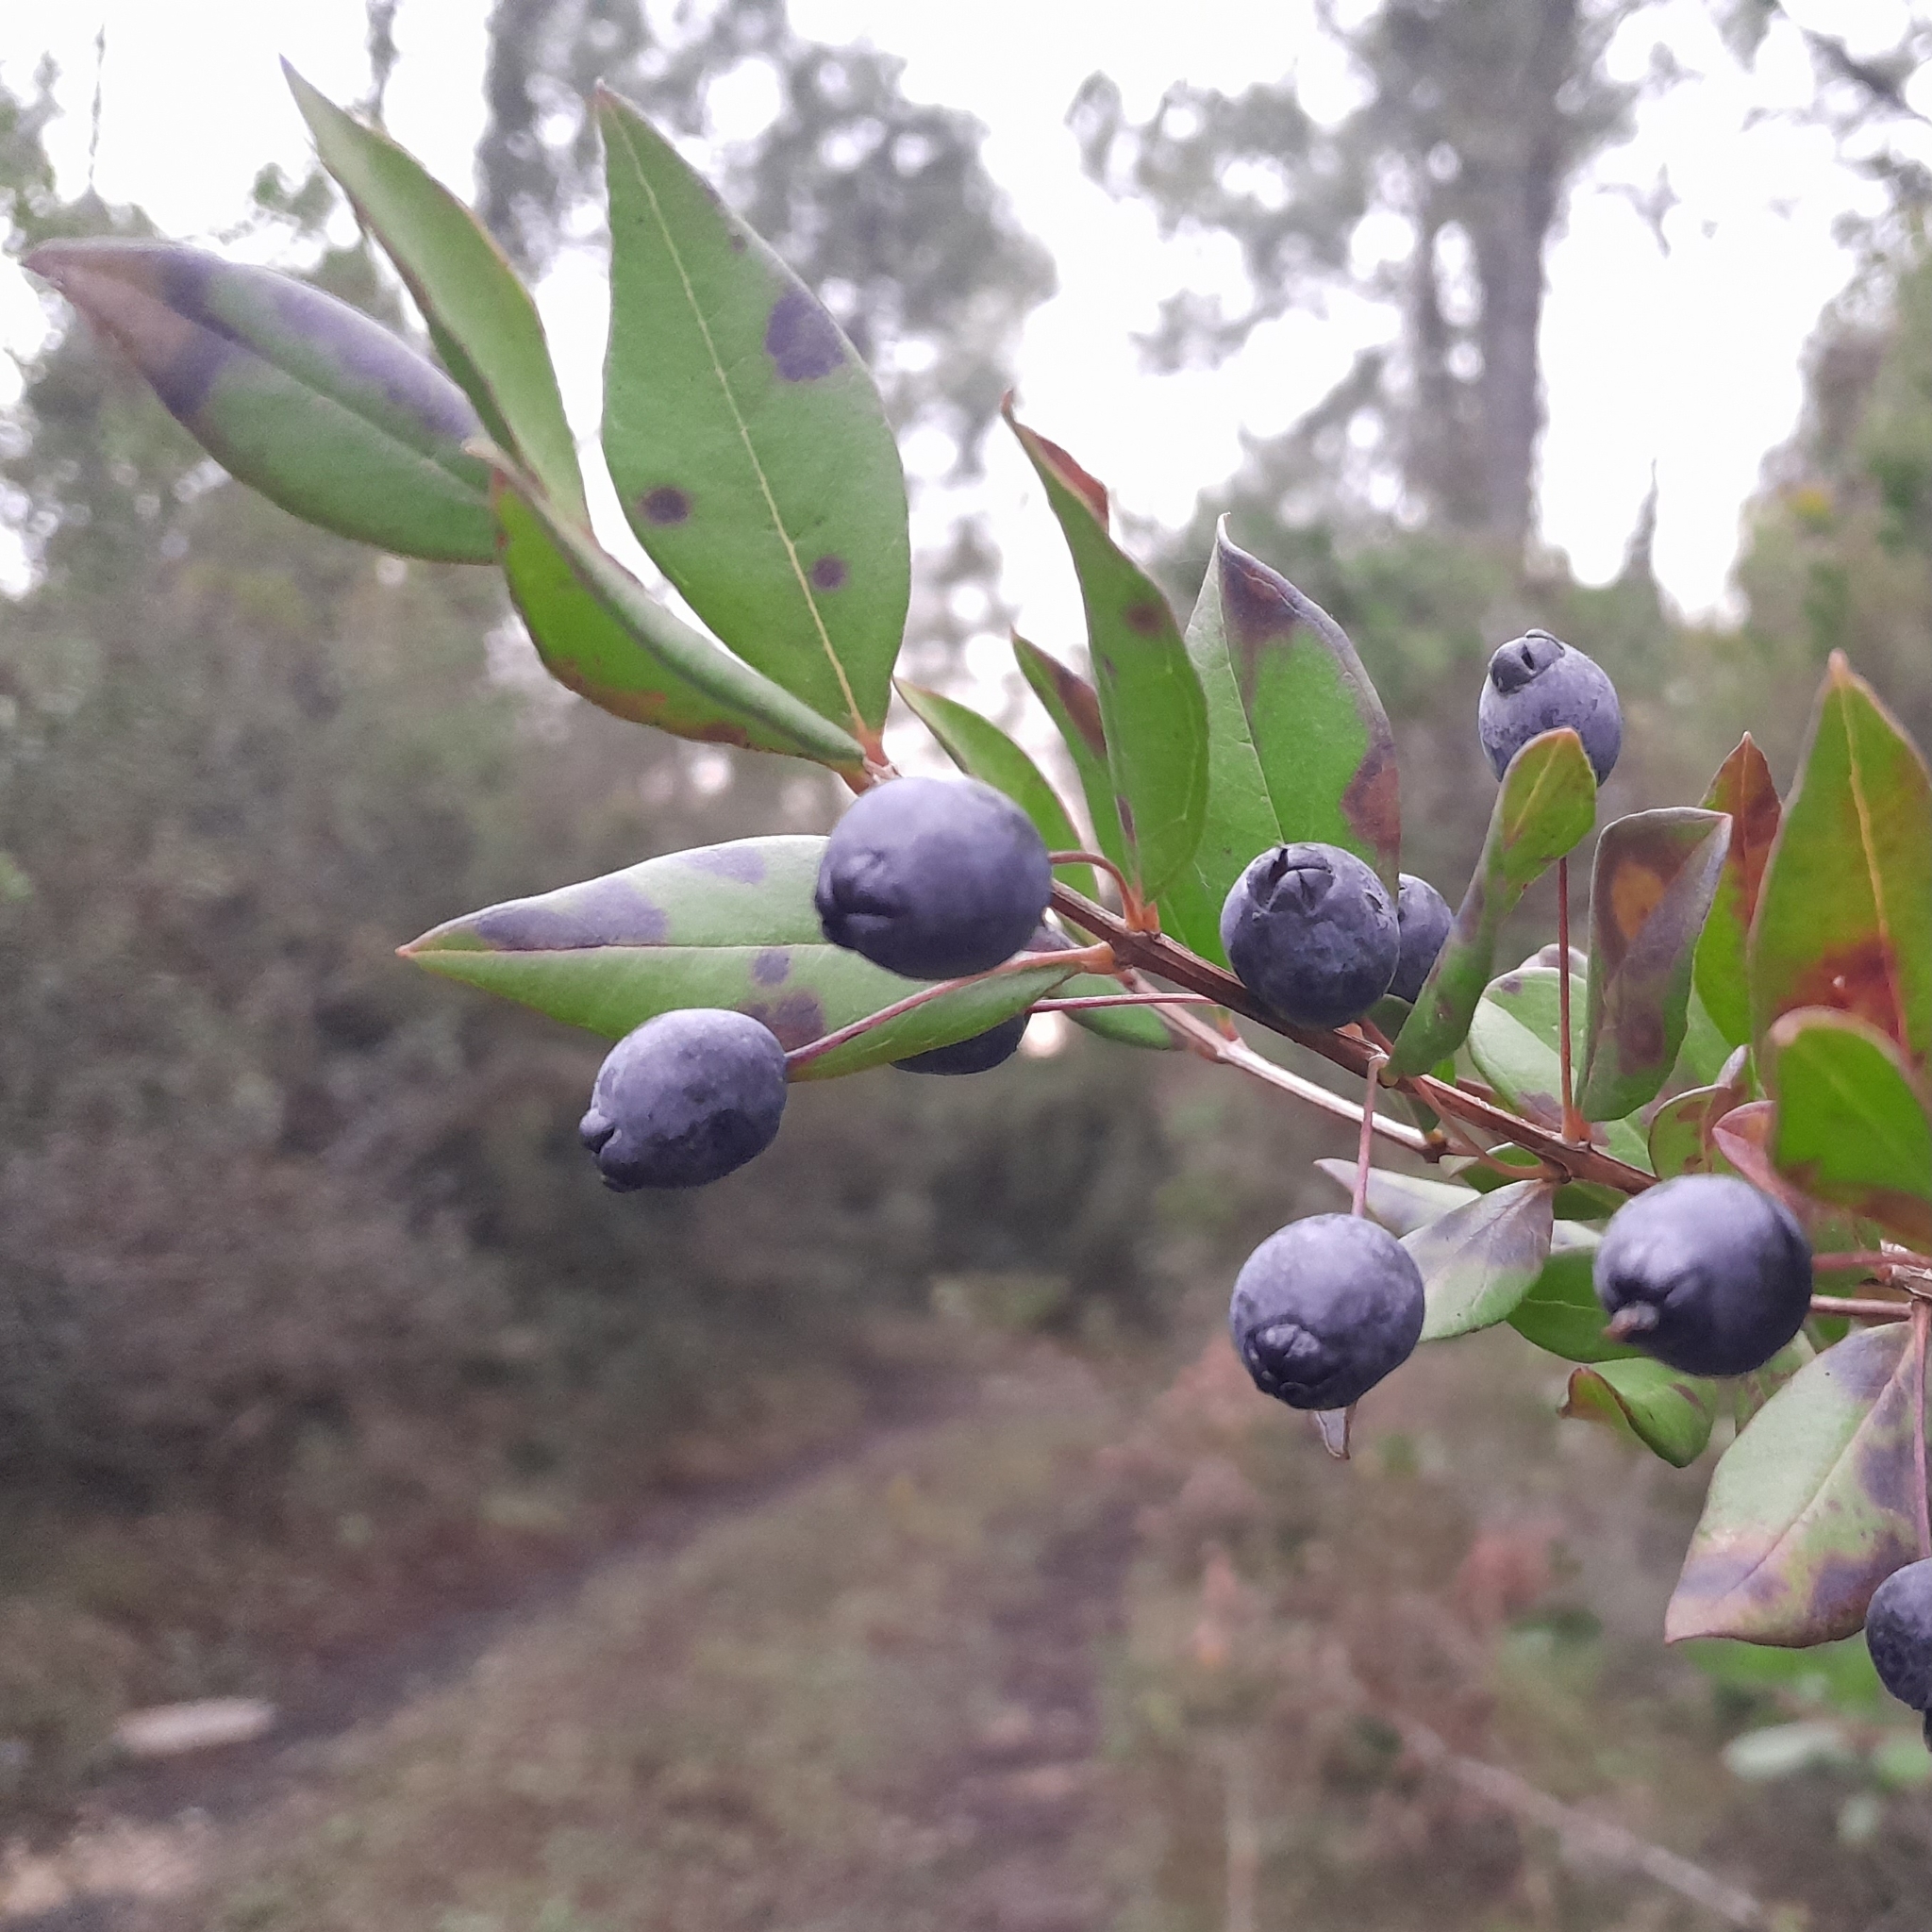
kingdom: Plantae
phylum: Tracheophyta
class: Magnoliopsida
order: Myrtales
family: Myrtaceae
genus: Myrtus
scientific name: Myrtus communis
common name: Myrtle
